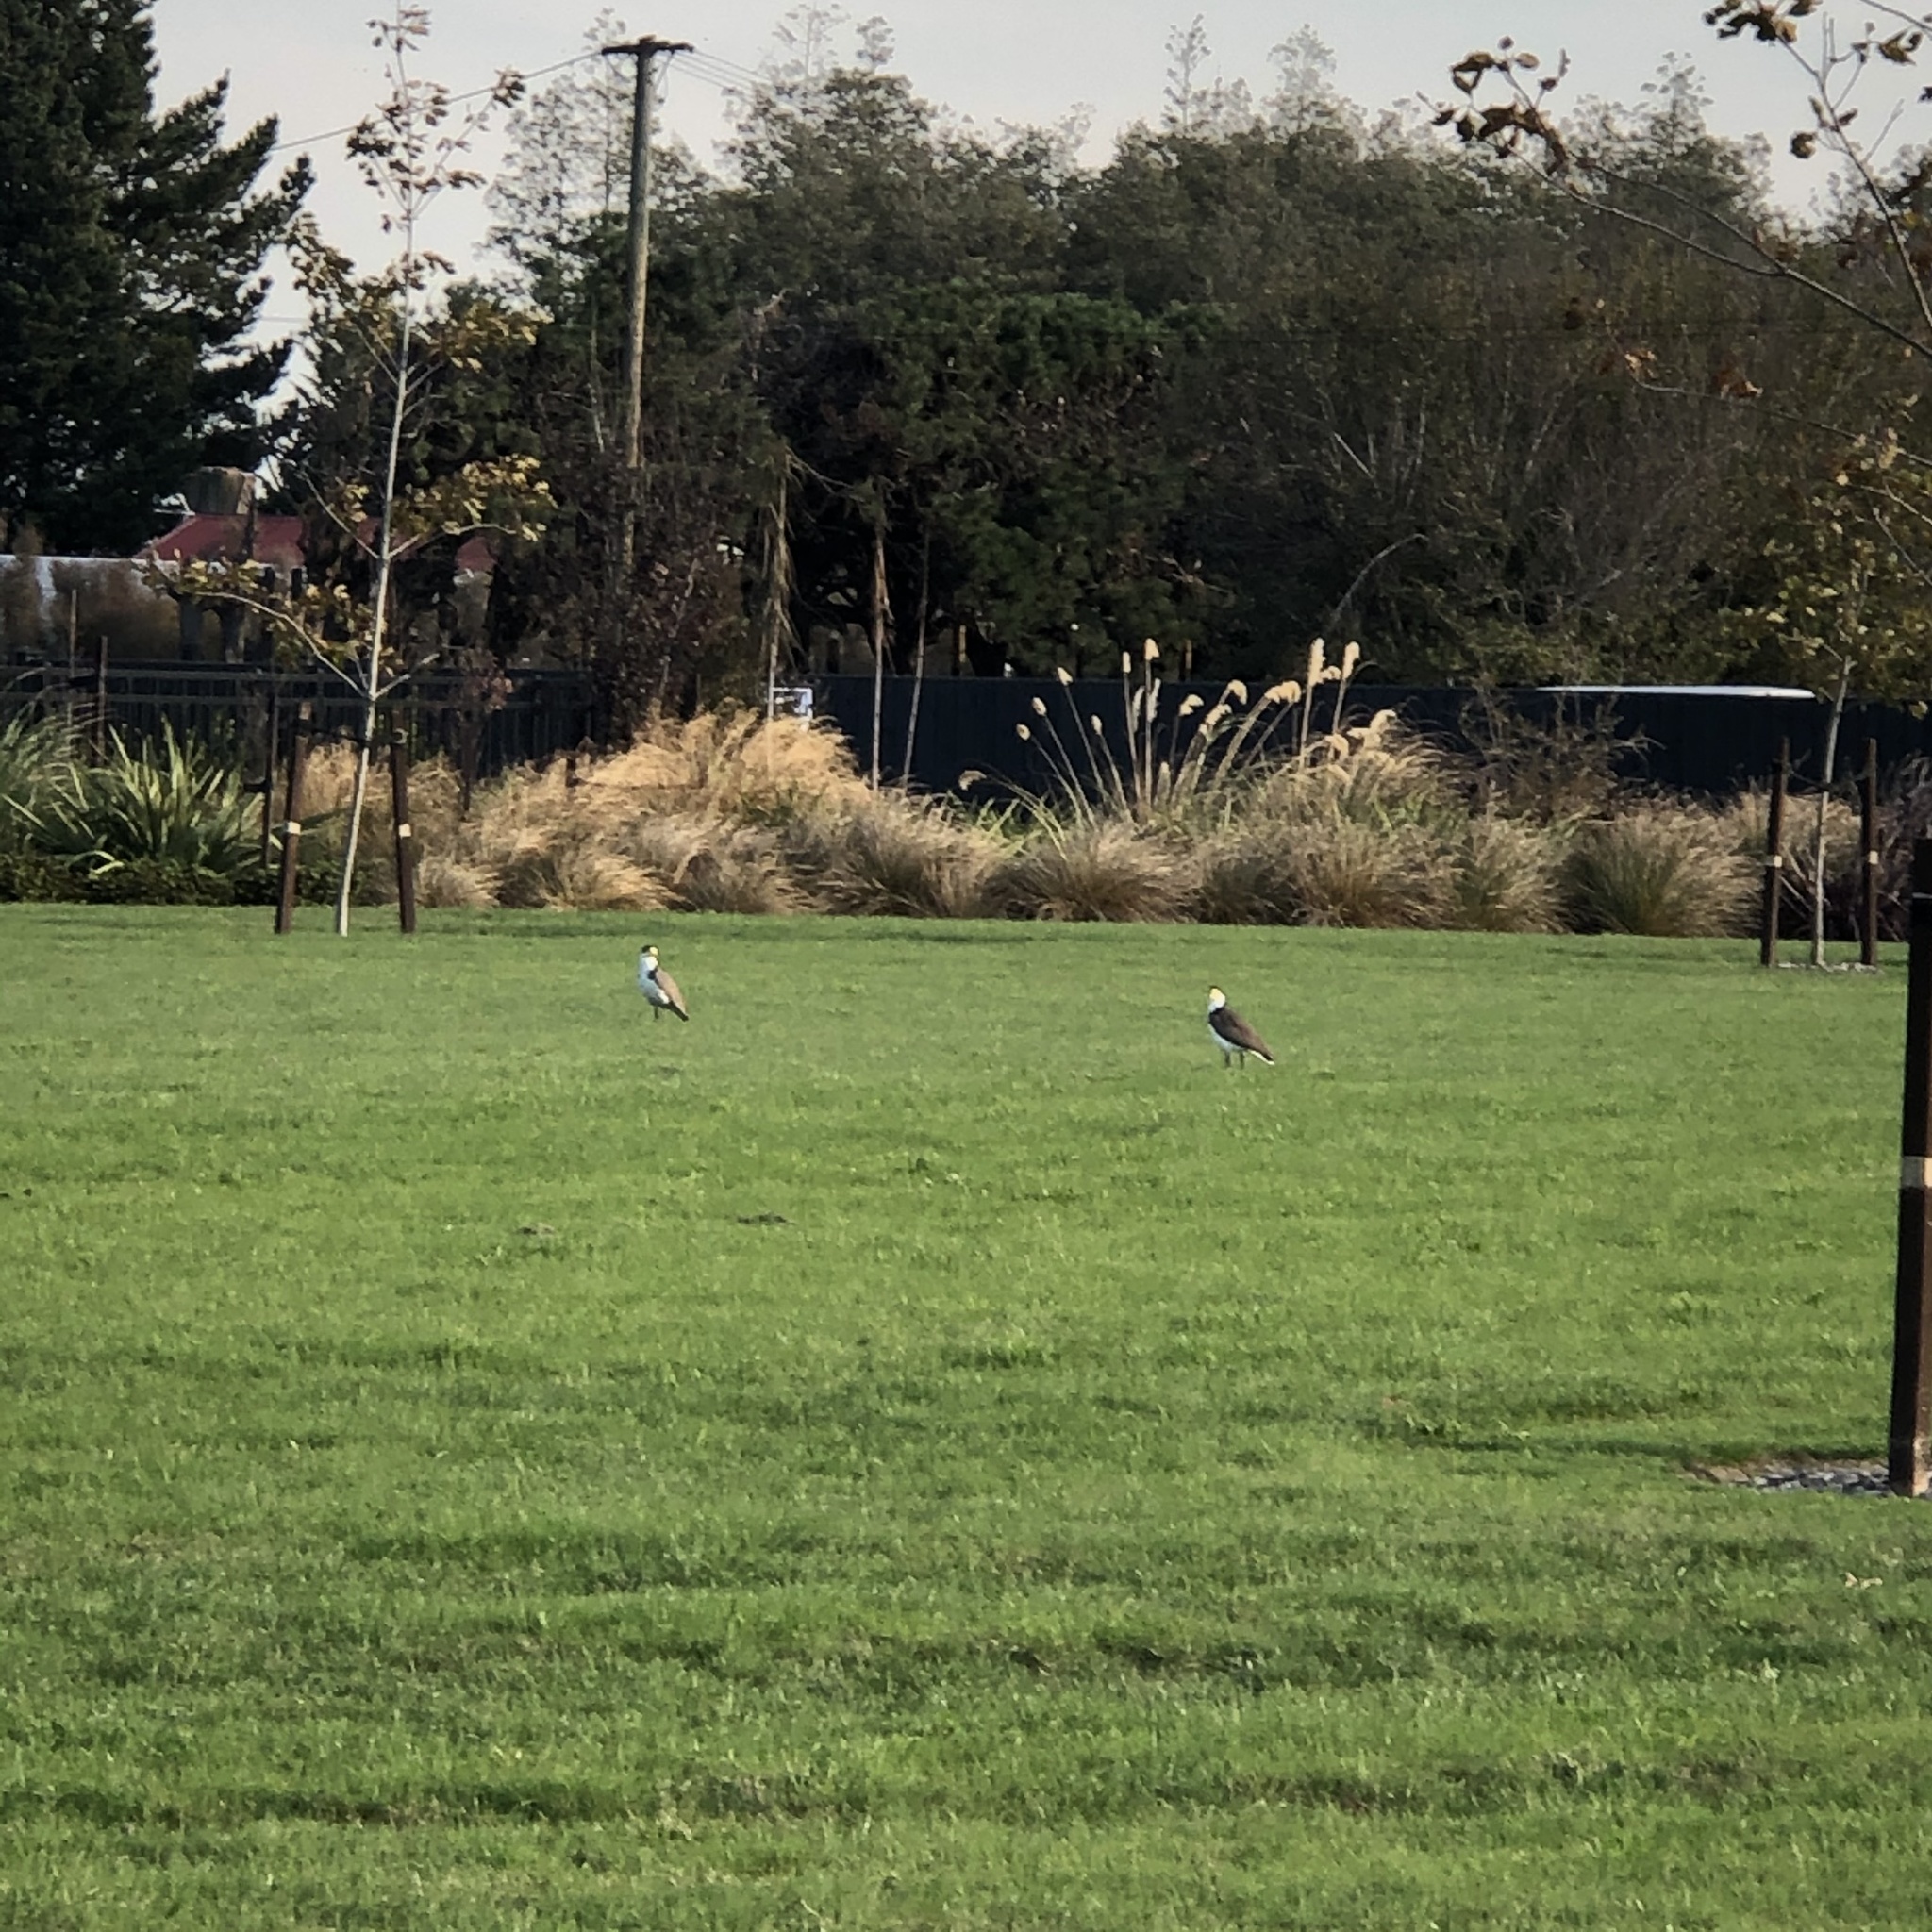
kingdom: Animalia
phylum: Chordata
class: Aves
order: Charadriiformes
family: Charadriidae
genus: Vanellus
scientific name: Vanellus miles
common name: Masked lapwing
